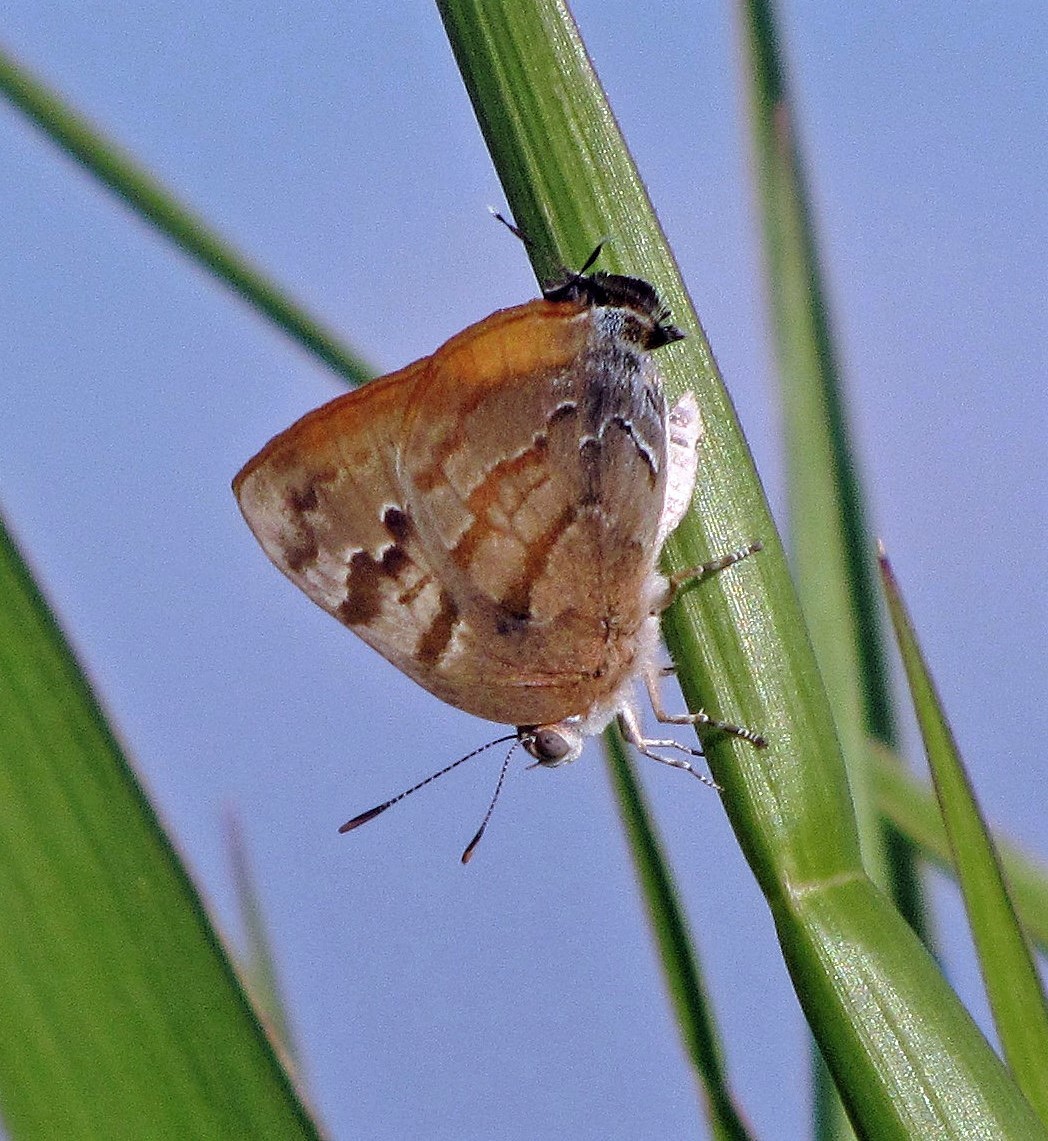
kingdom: Animalia
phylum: Arthropoda
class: Insecta
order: Lepidoptera
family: Lycaenidae
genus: Rekoa
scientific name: Rekoa palegon
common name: Gold-bordered hairstreak
